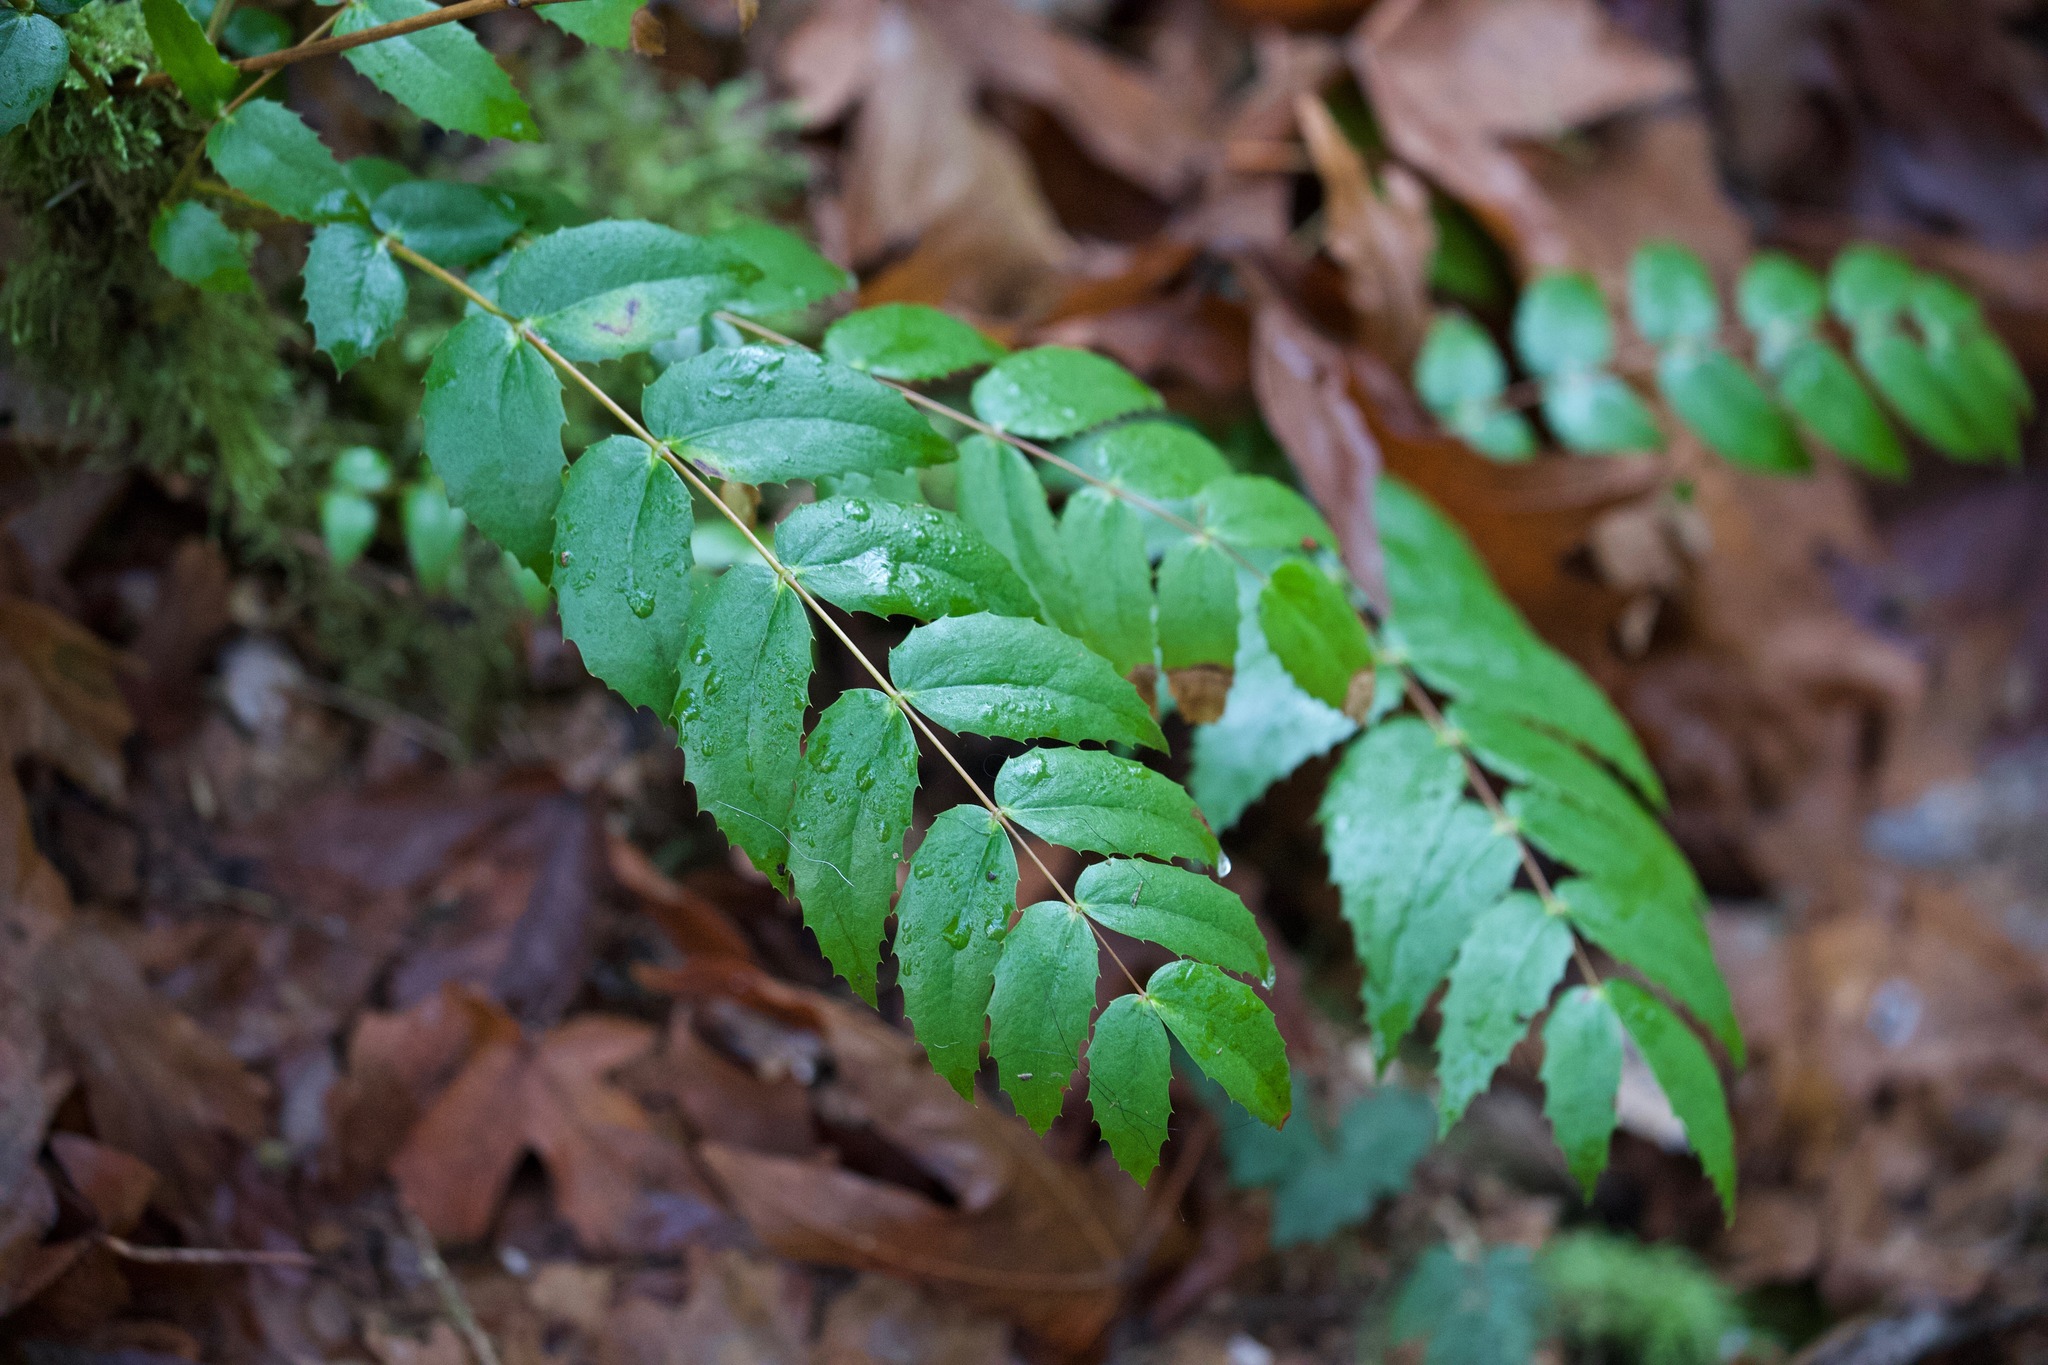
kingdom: Plantae
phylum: Tracheophyta
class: Magnoliopsida
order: Ranunculales
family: Berberidaceae
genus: Mahonia
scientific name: Mahonia nervosa
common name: Cascade oregon-grape
